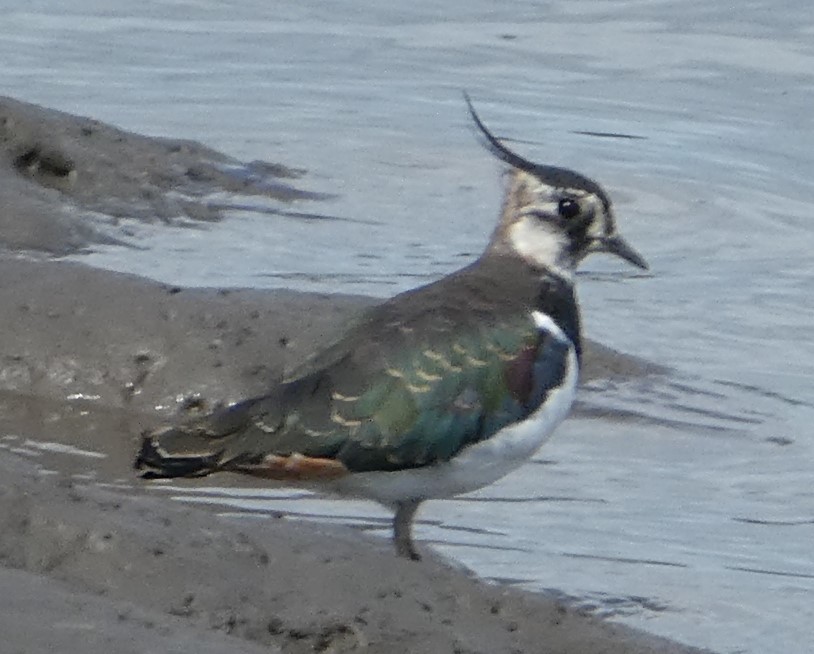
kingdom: Animalia
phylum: Chordata
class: Aves
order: Charadriiformes
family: Charadriidae
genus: Vanellus
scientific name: Vanellus vanellus
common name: Northern lapwing
